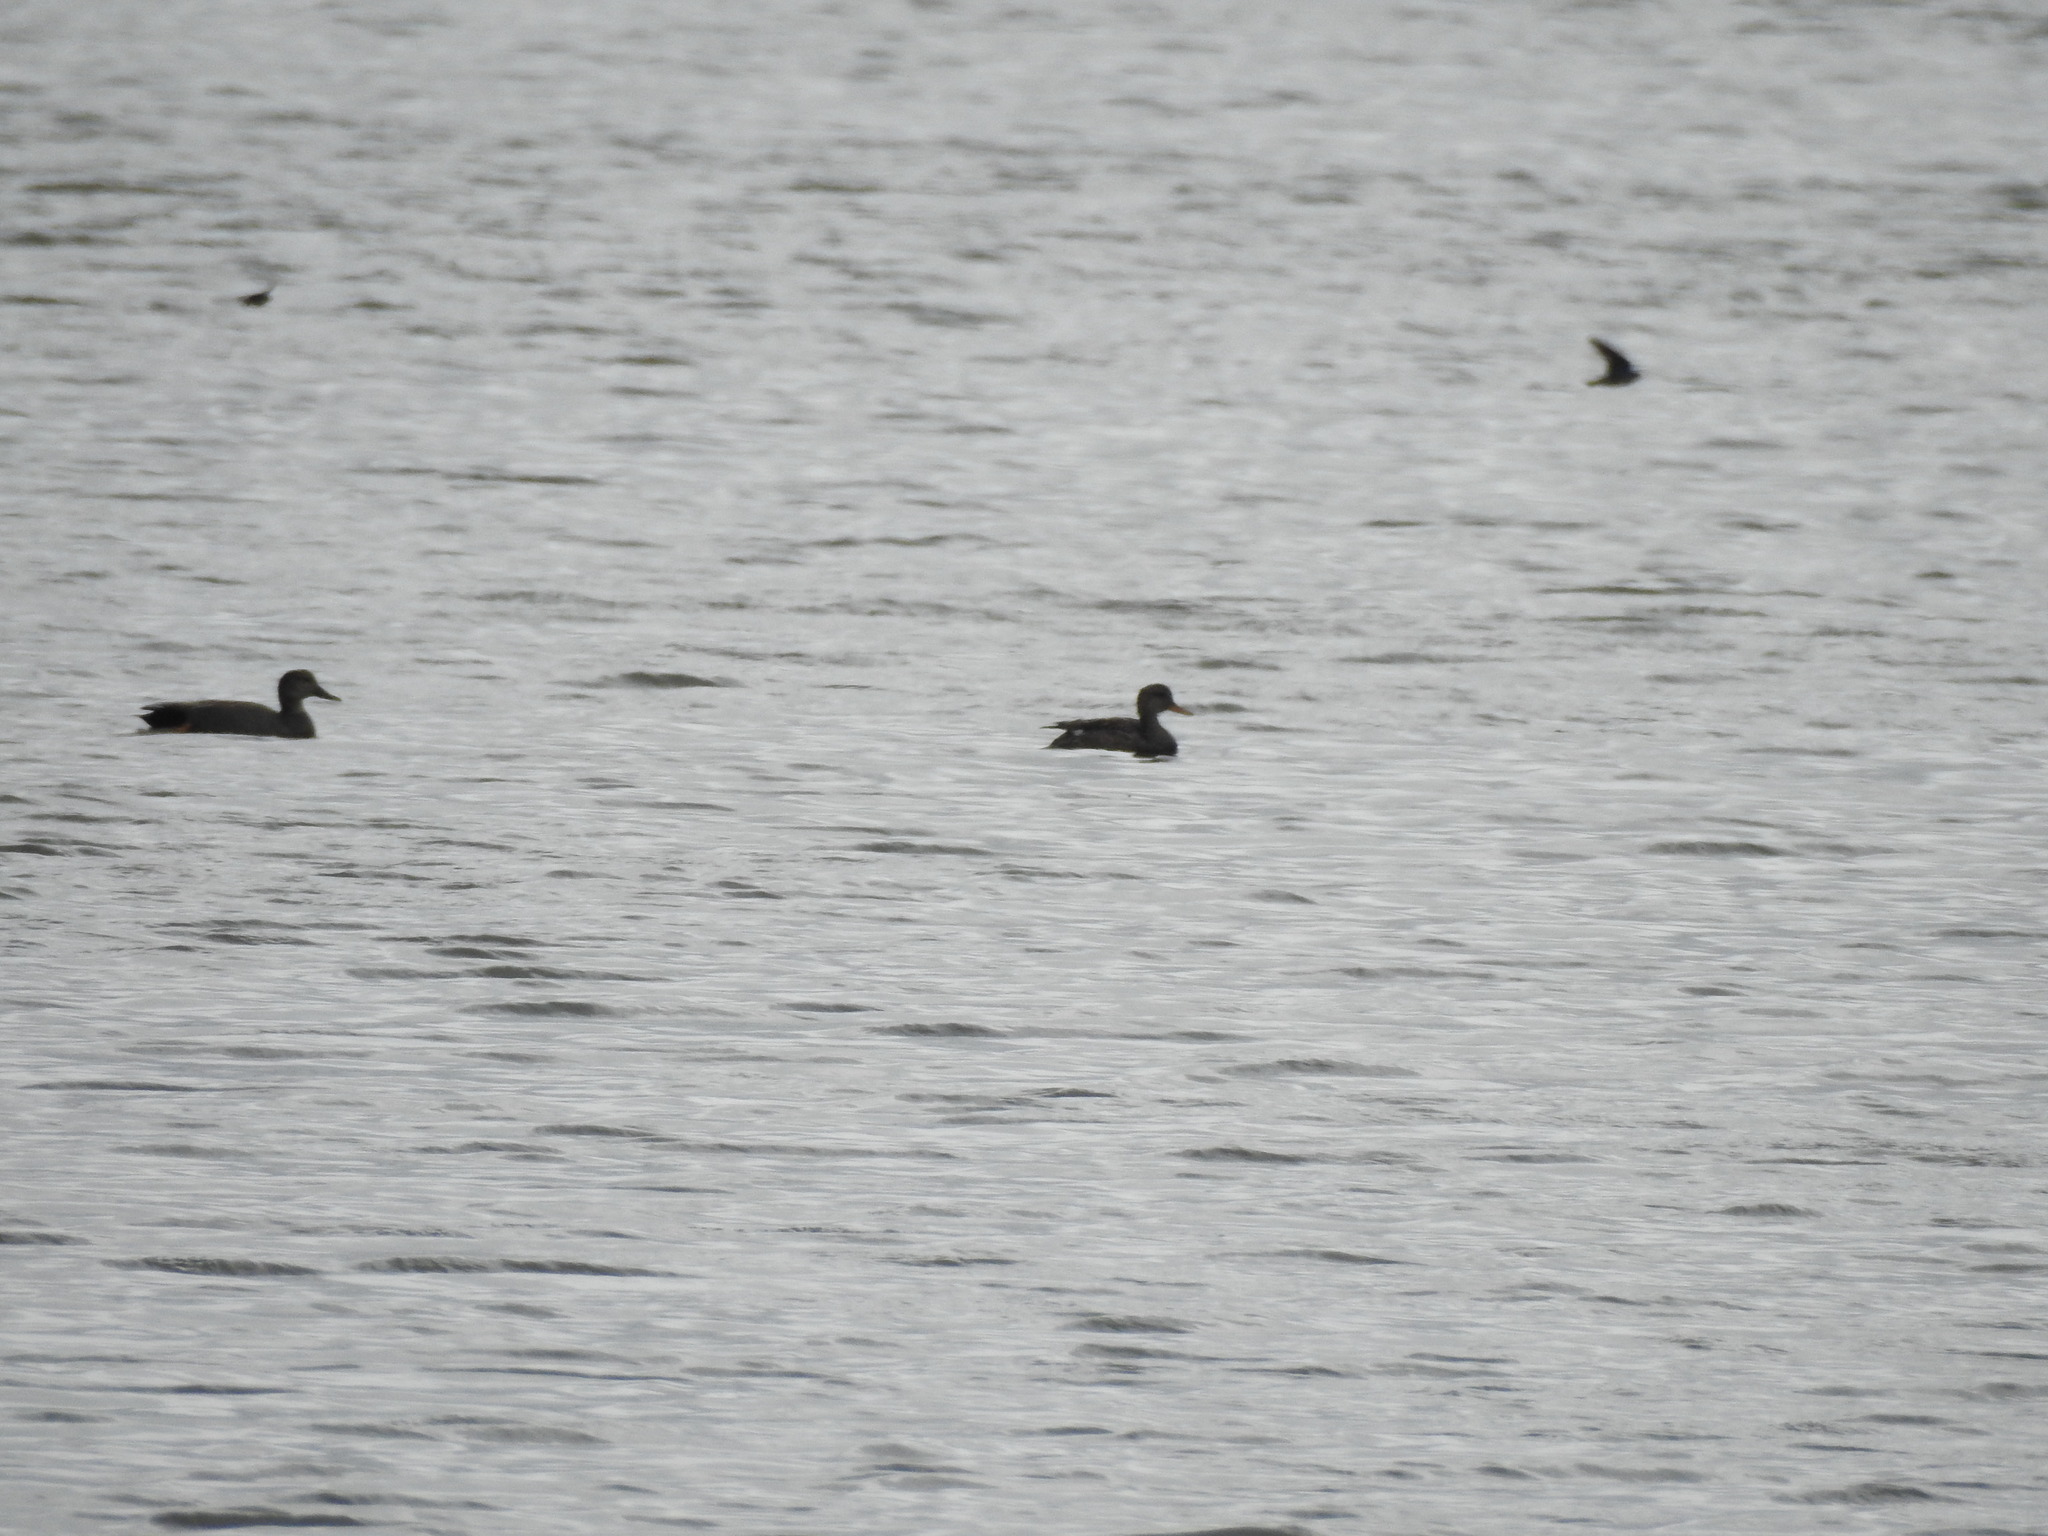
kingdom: Animalia
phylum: Chordata
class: Aves
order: Anseriformes
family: Anatidae
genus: Mareca
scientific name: Mareca strepera
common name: Gadwall
